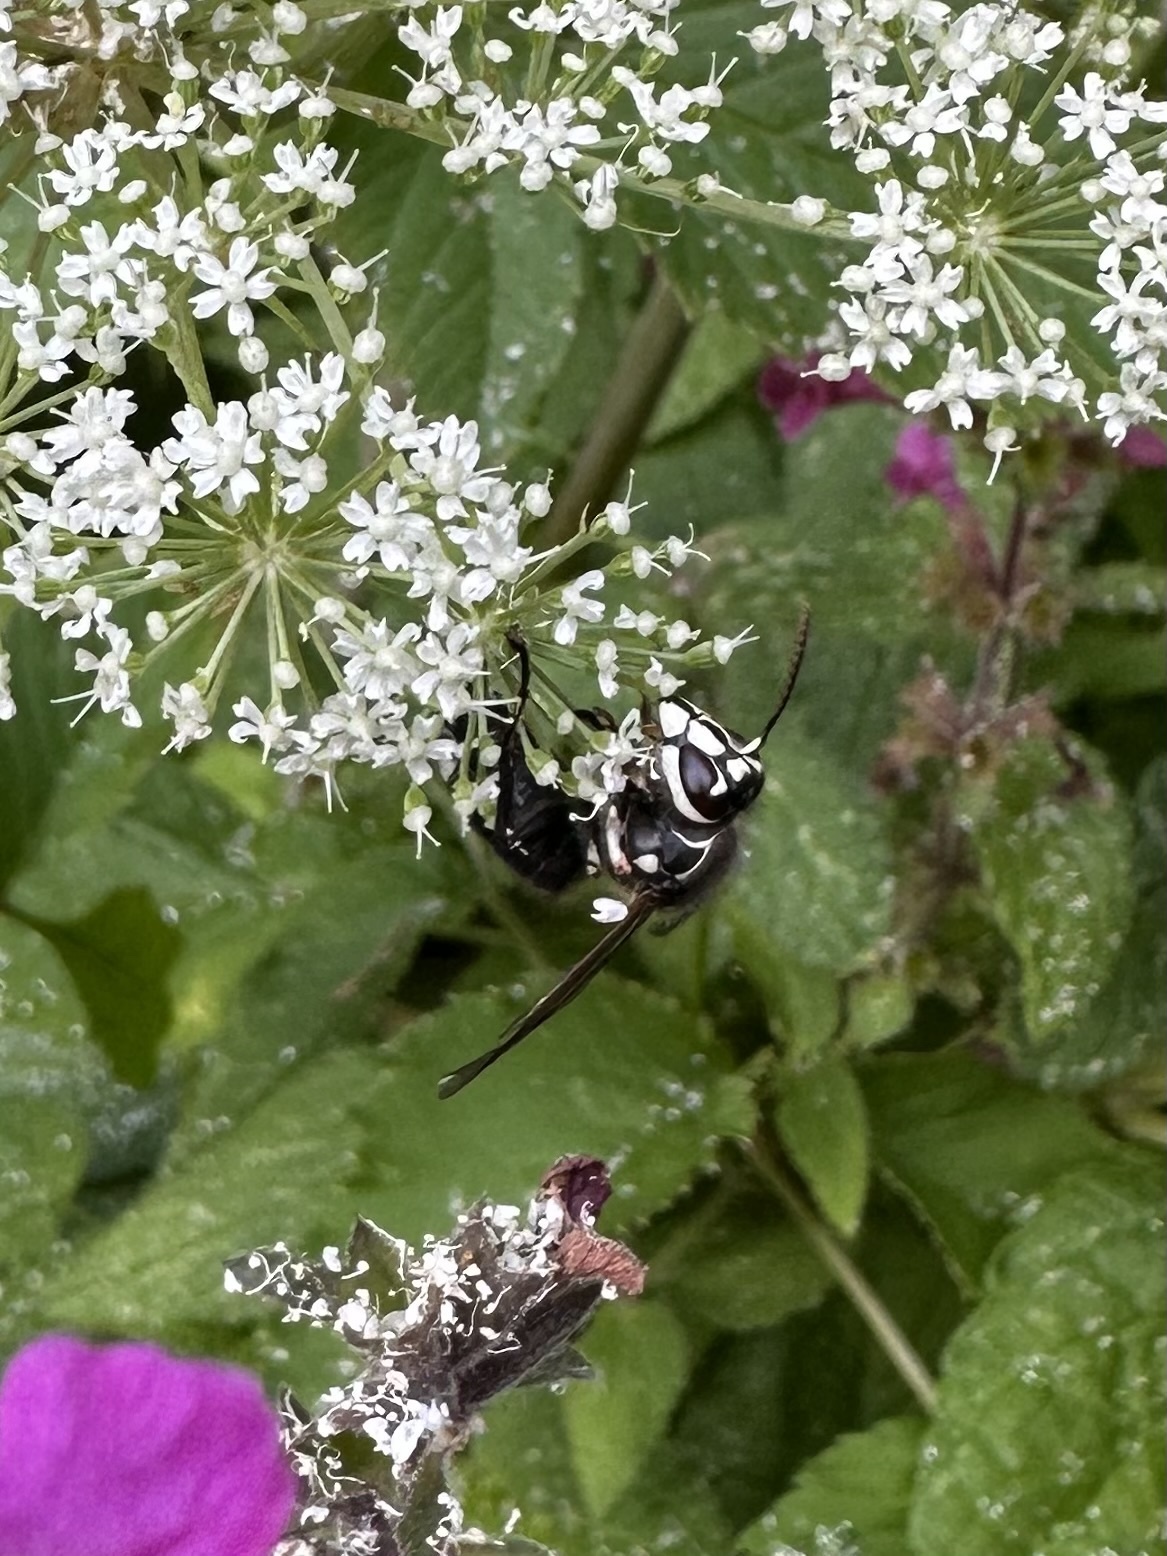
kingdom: Animalia
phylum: Arthropoda
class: Insecta
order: Hymenoptera
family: Vespidae
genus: Dolichovespula
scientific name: Dolichovespula maculata
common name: Bald-faced hornet
